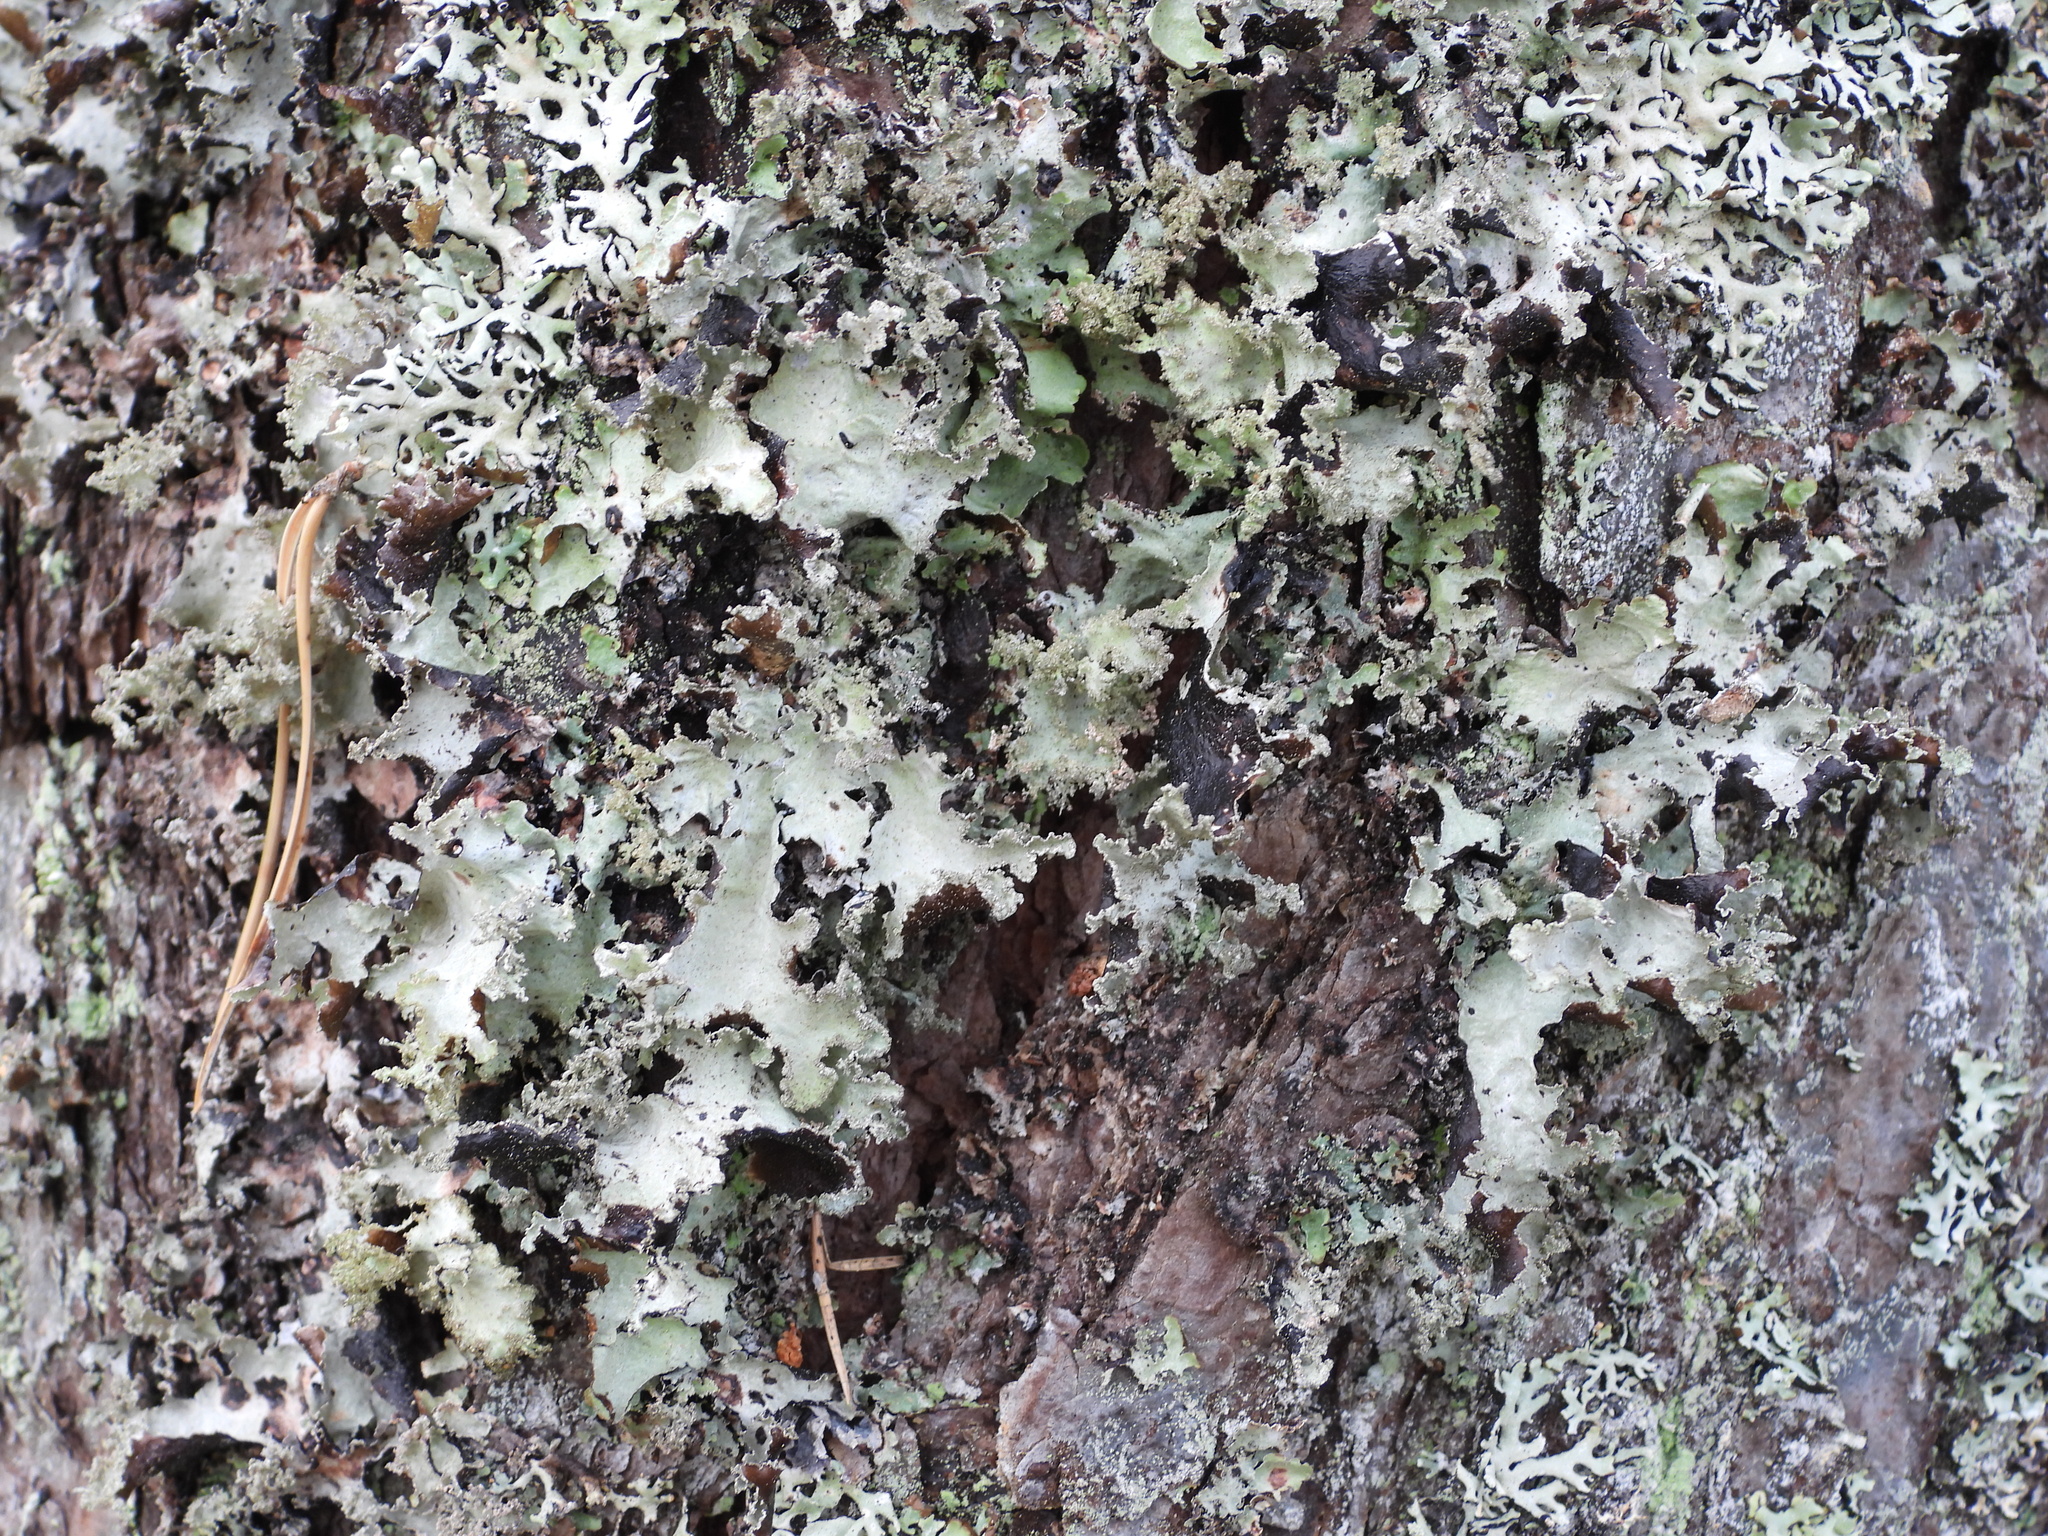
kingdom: Fungi
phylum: Ascomycota
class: Lecanoromycetes
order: Lecanorales
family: Parmeliaceae
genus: Platismatia
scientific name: Platismatia glauca
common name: Varied rag lichen
